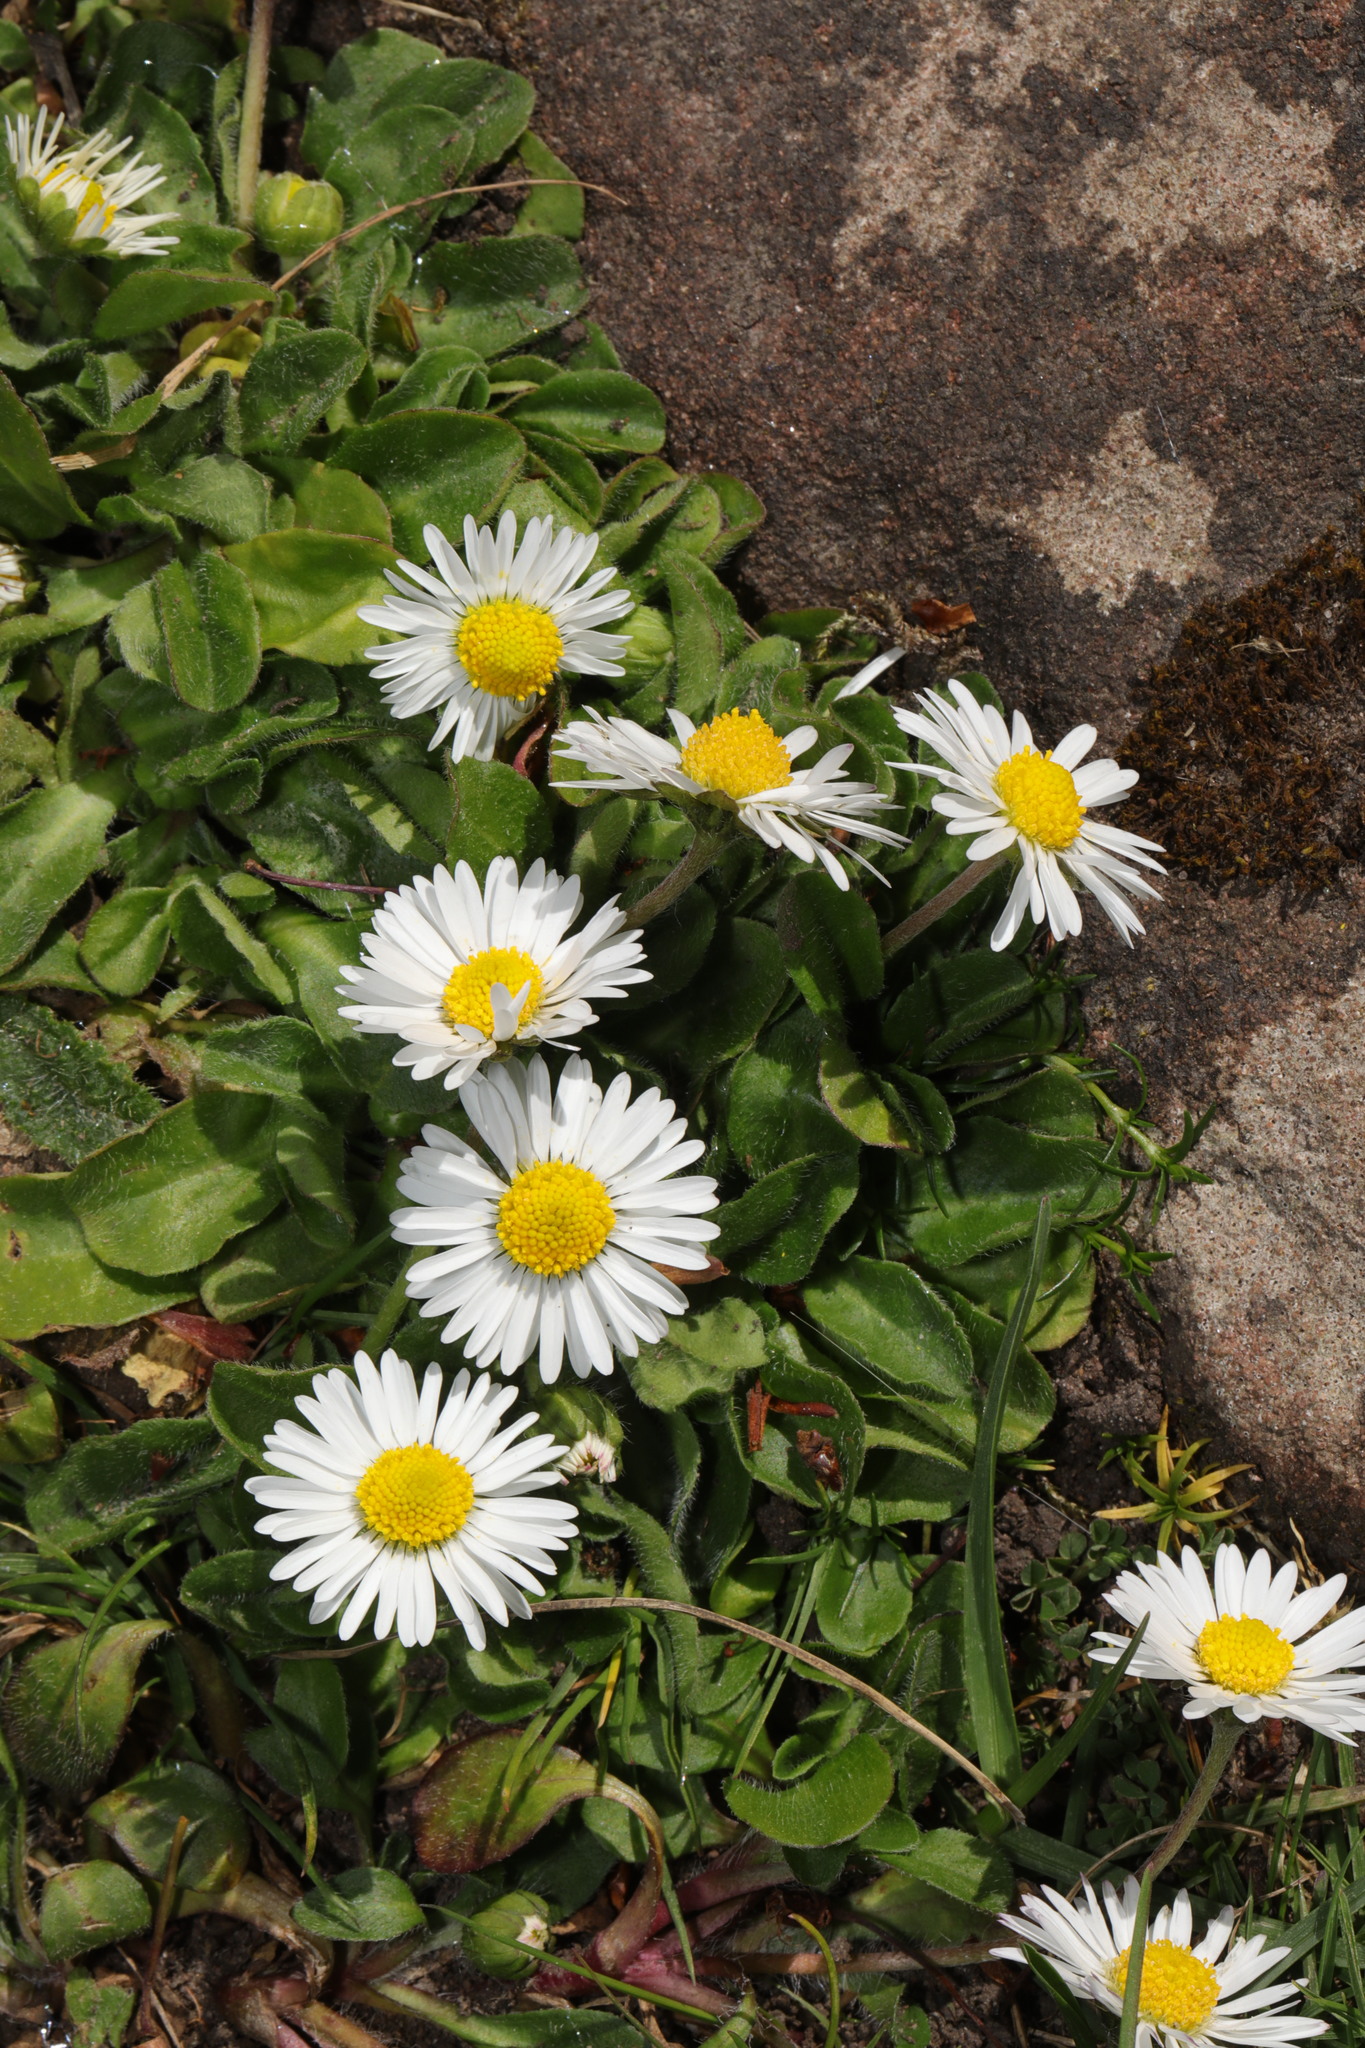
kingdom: Plantae
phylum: Tracheophyta
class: Magnoliopsida
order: Asterales
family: Asteraceae
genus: Bellis
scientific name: Bellis perennis
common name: Lawndaisy
